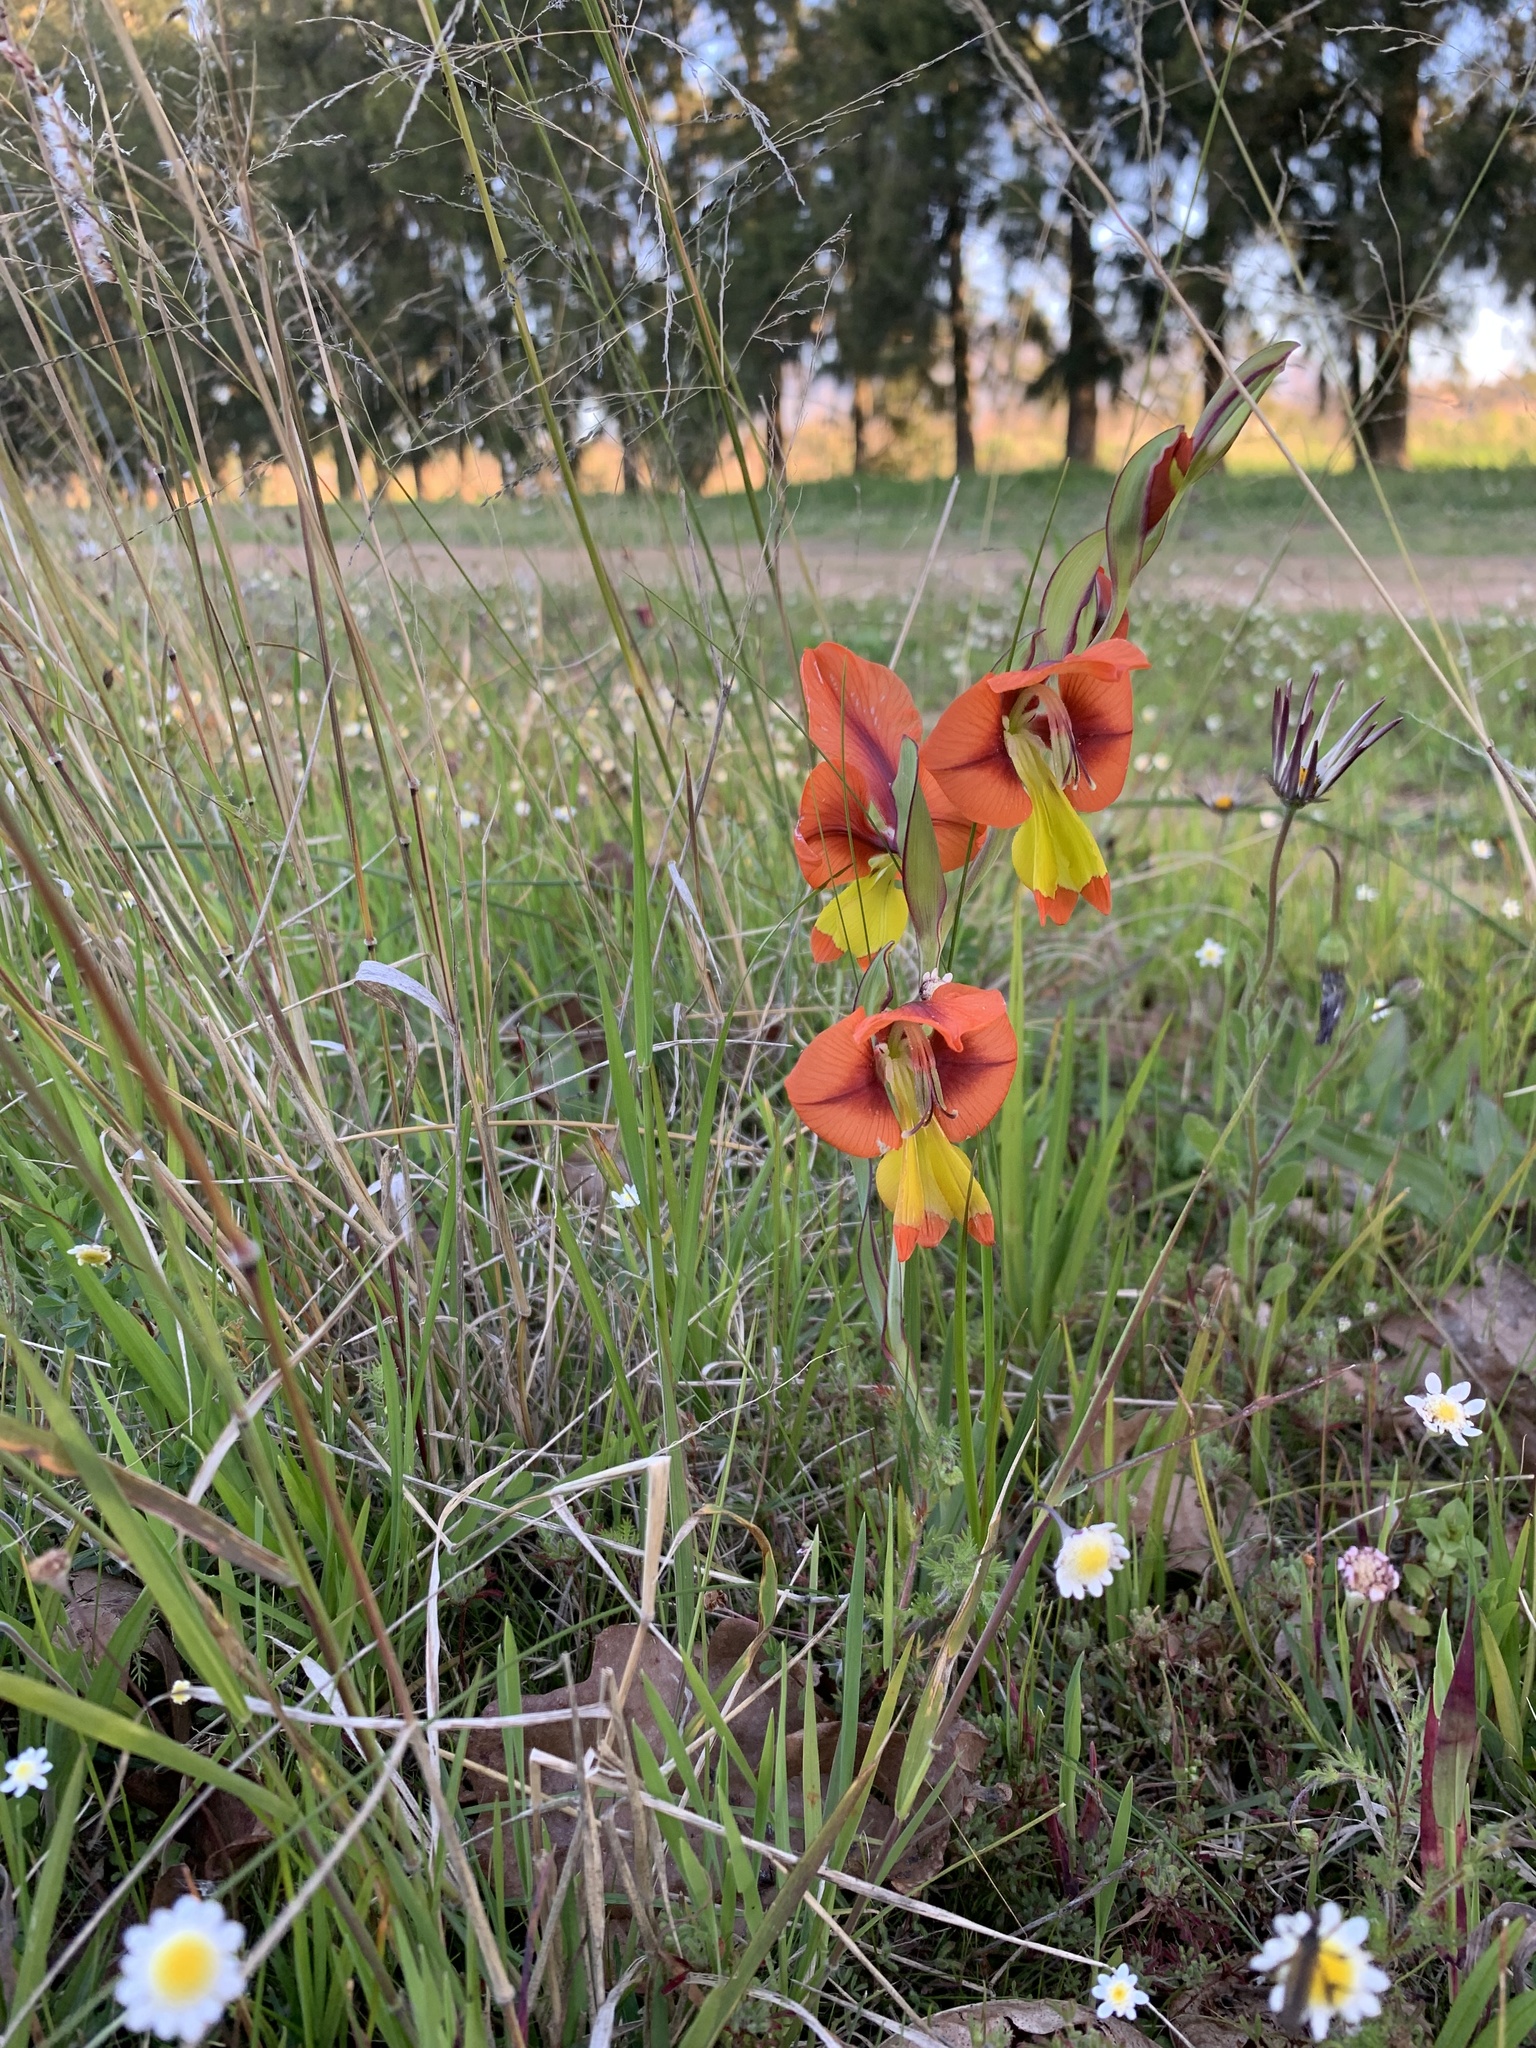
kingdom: Plantae
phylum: Tracheophyta
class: Liliopsida
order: Asparagales
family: Iridaceae
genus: Gladiolus
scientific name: Gladiolus alatus
